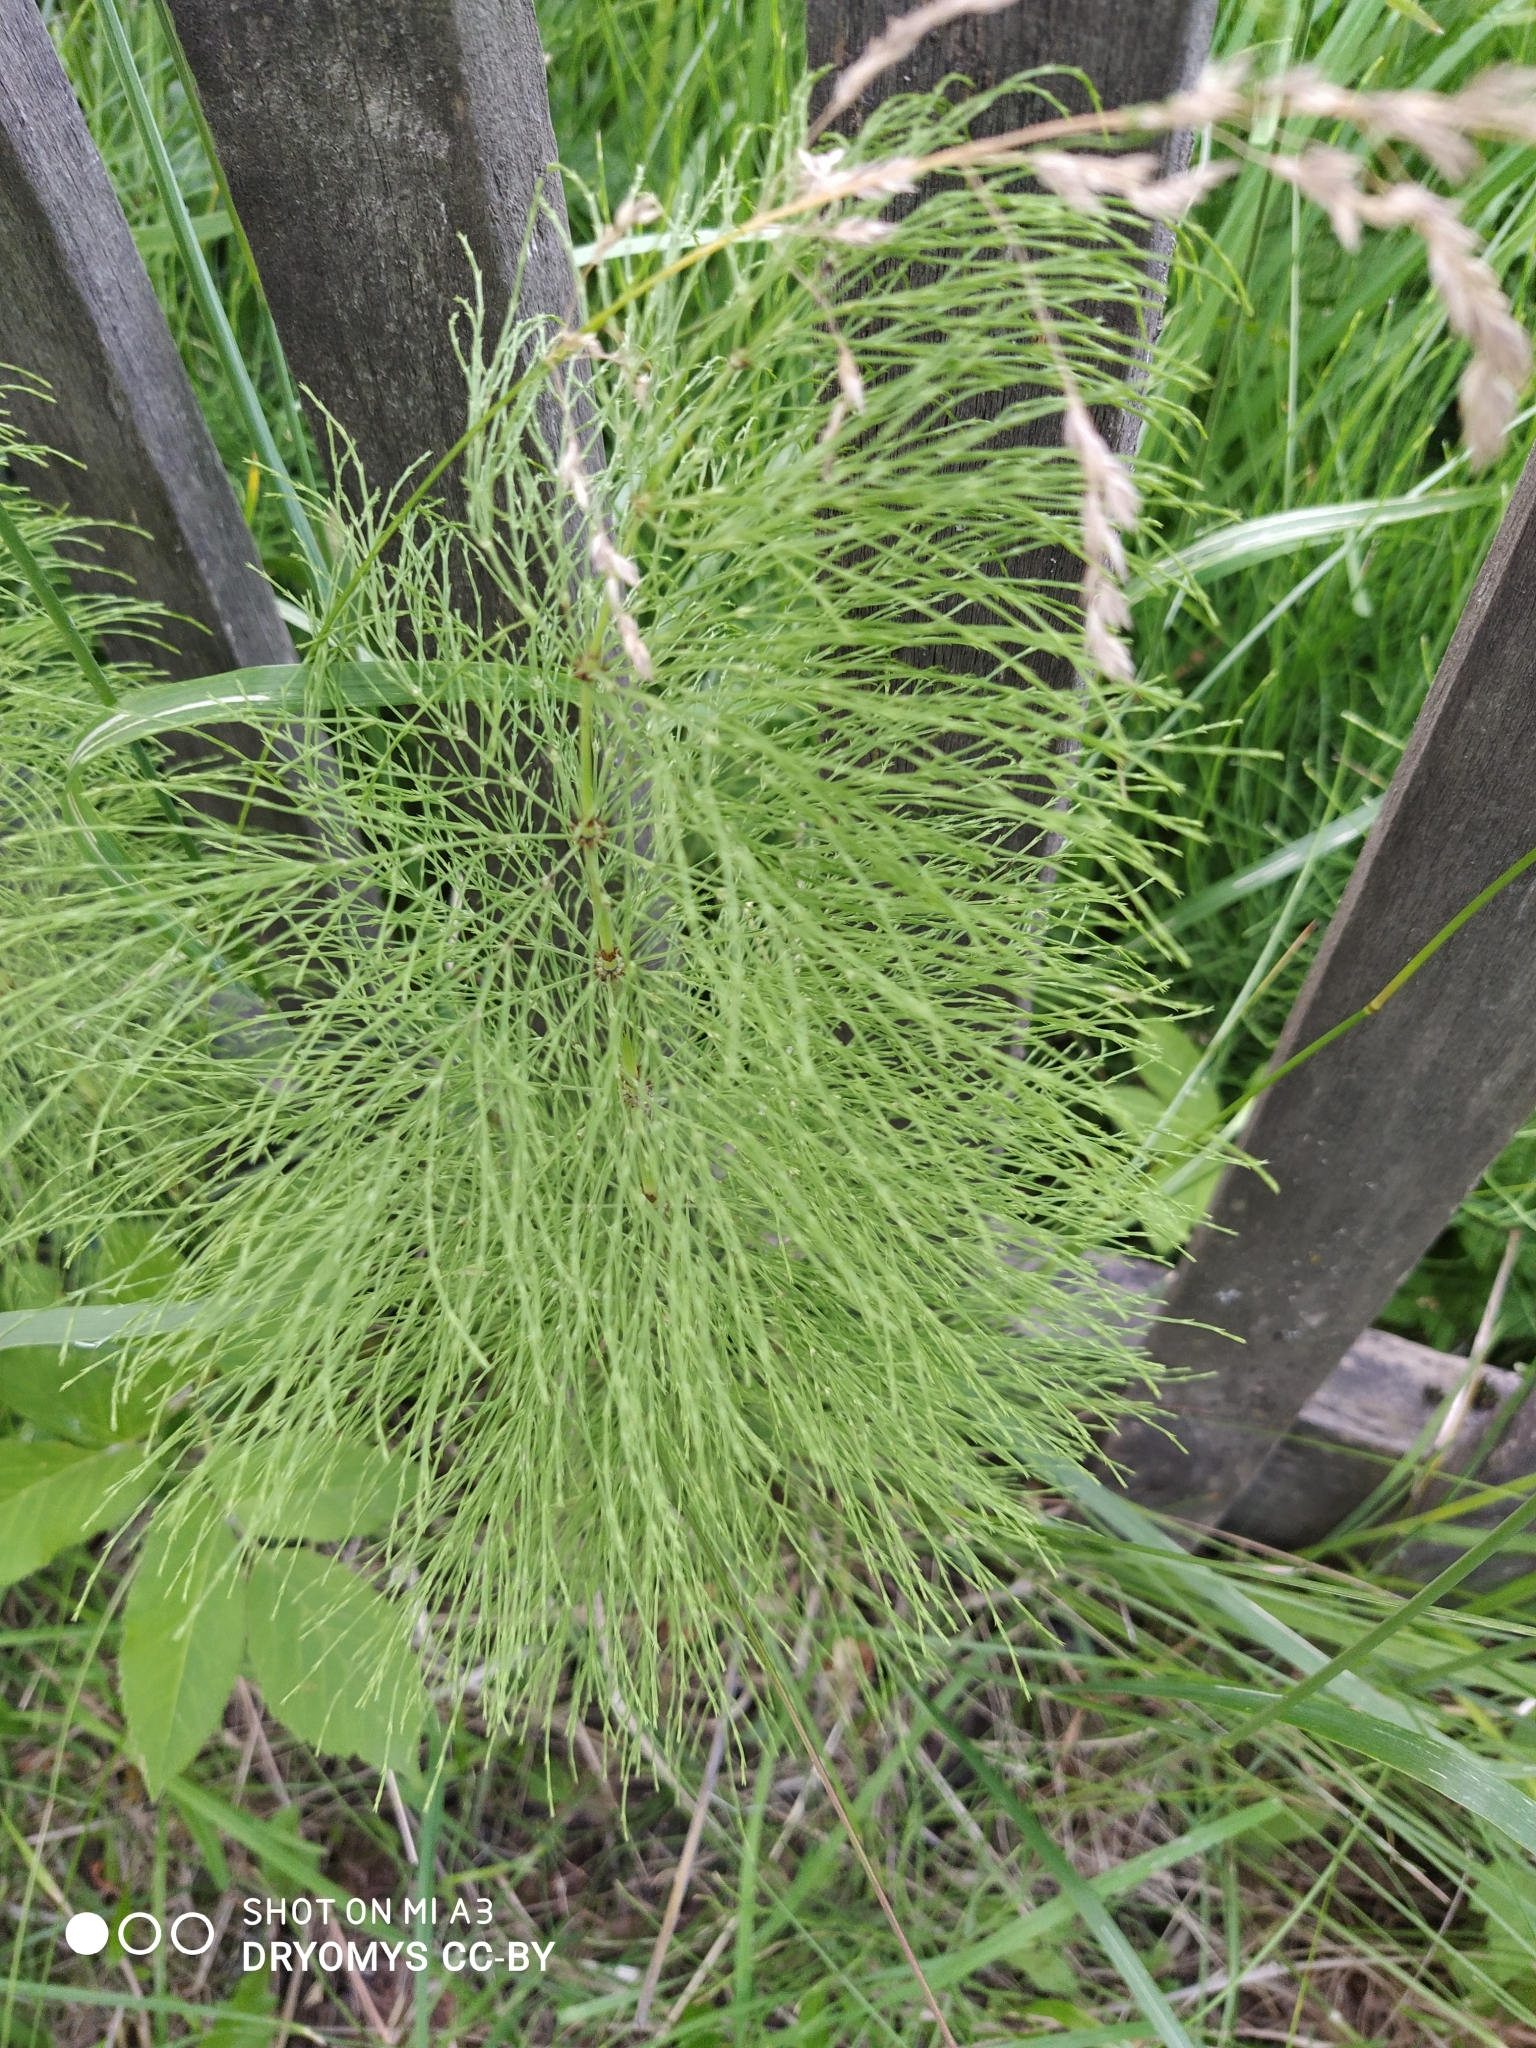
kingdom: Plantae
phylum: Tracheophyta
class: Polypodiopsida
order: Equisetales
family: Equisetaceae
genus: Equisetum
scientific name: Equisetum sylvaticum
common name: Wood horsetail
